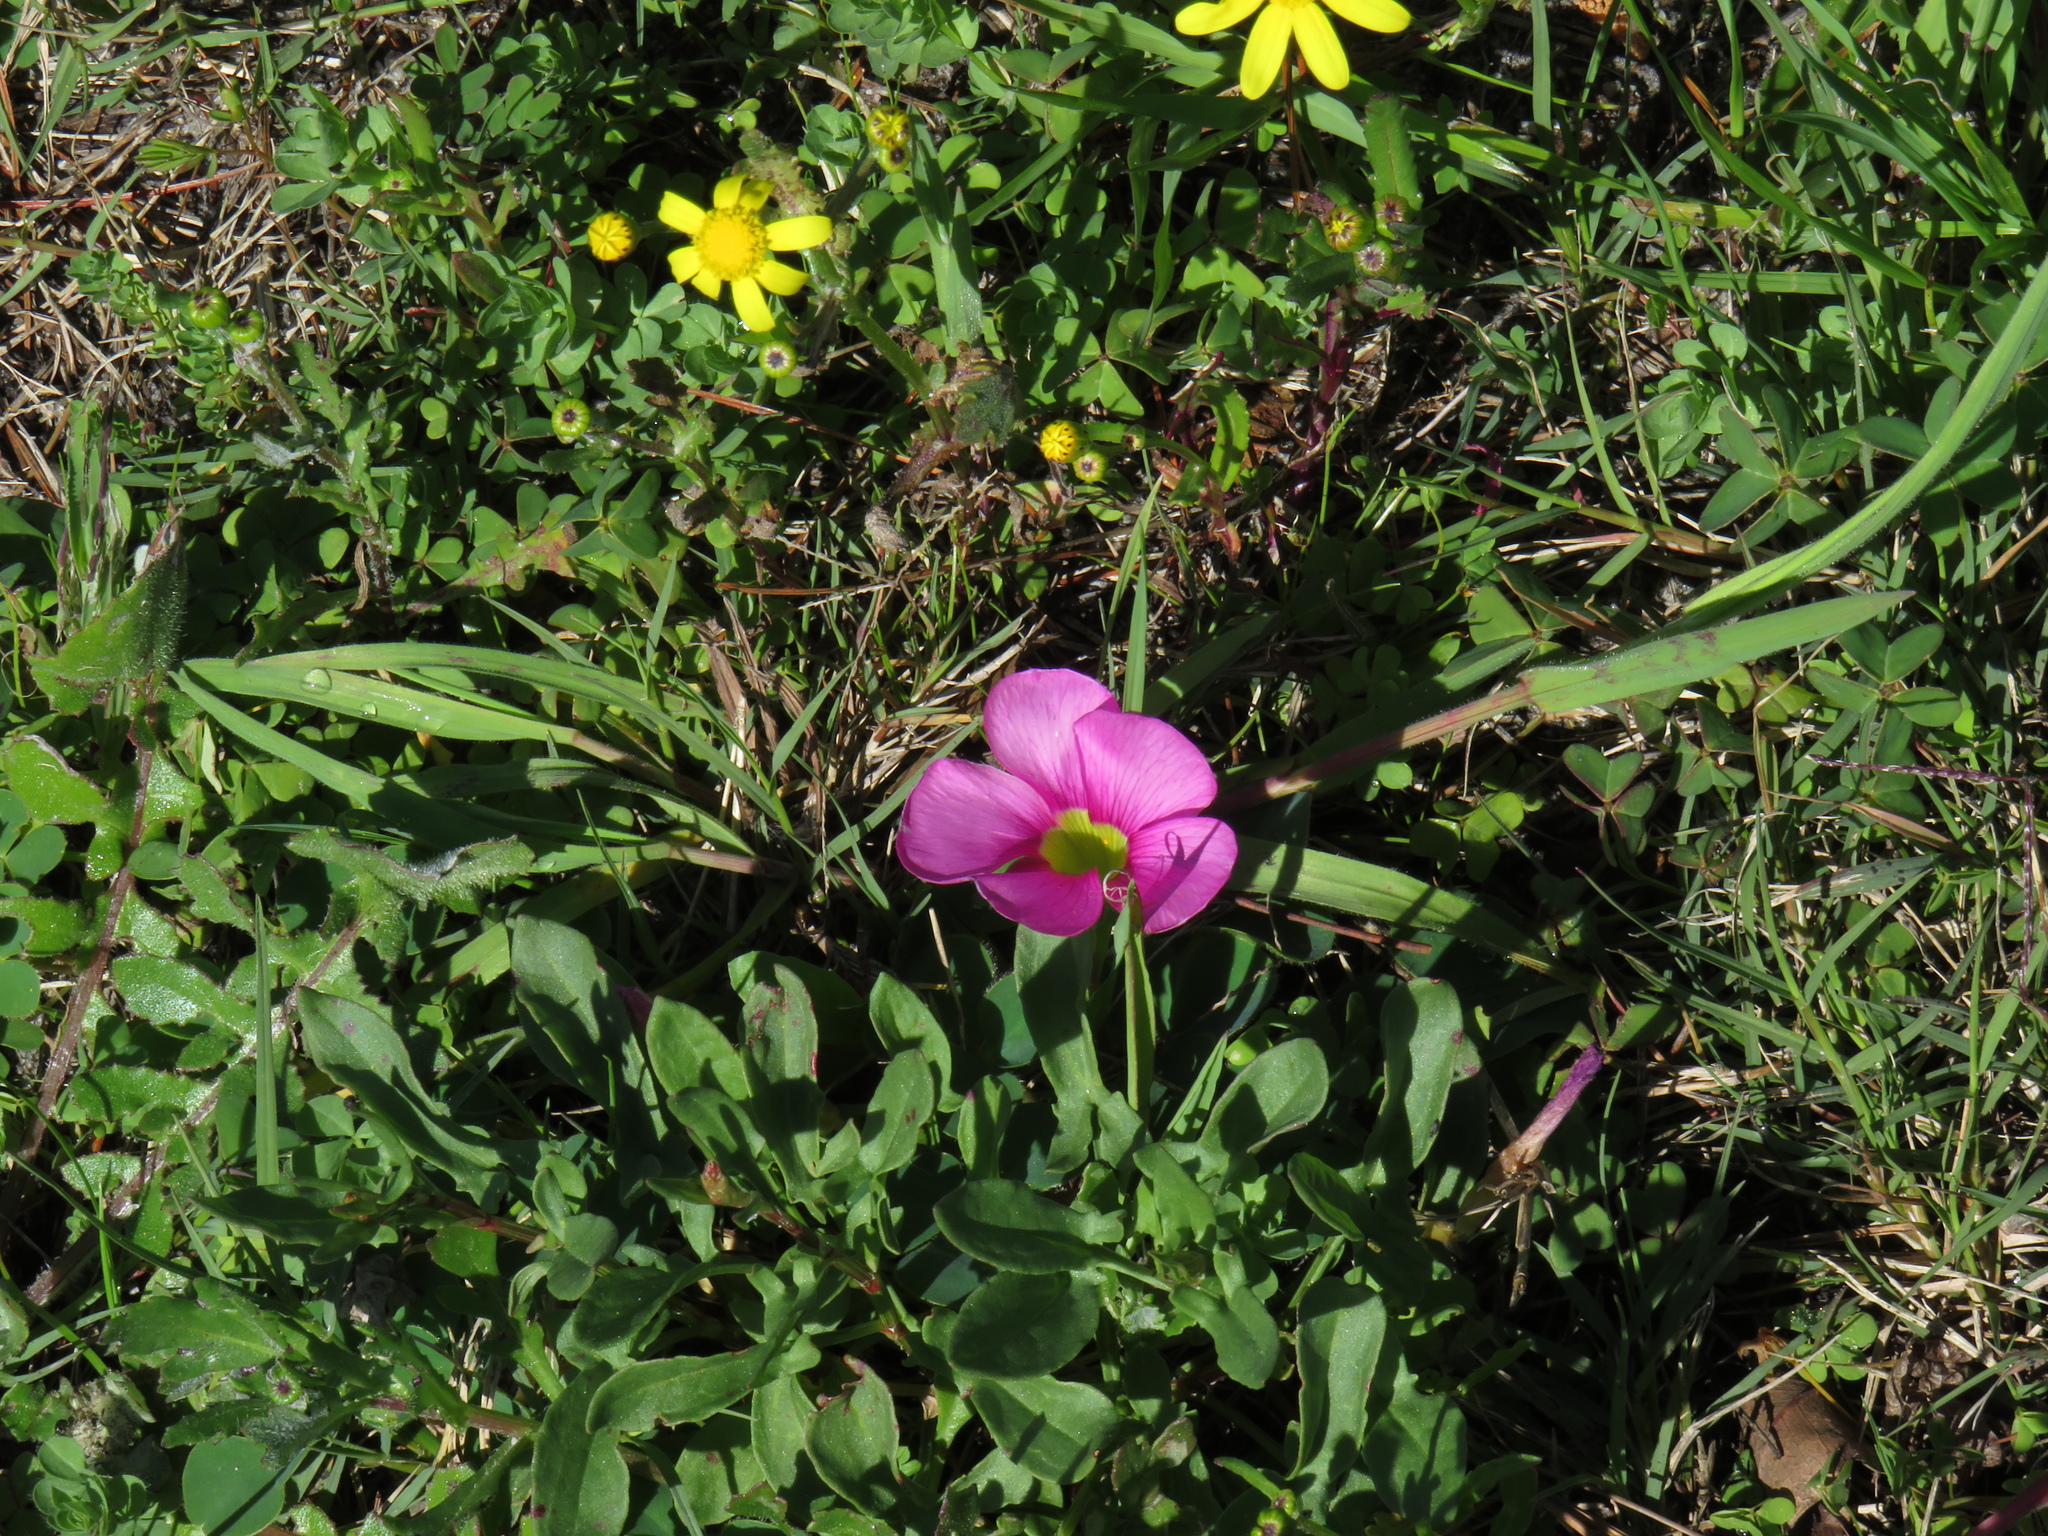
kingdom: Plantae
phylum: Tracheophyta
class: Magnoliopsida
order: Oxalidales
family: Oxalidaceae
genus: Oxalis
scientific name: Oxalis purpurea
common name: Purple woodsorrel
